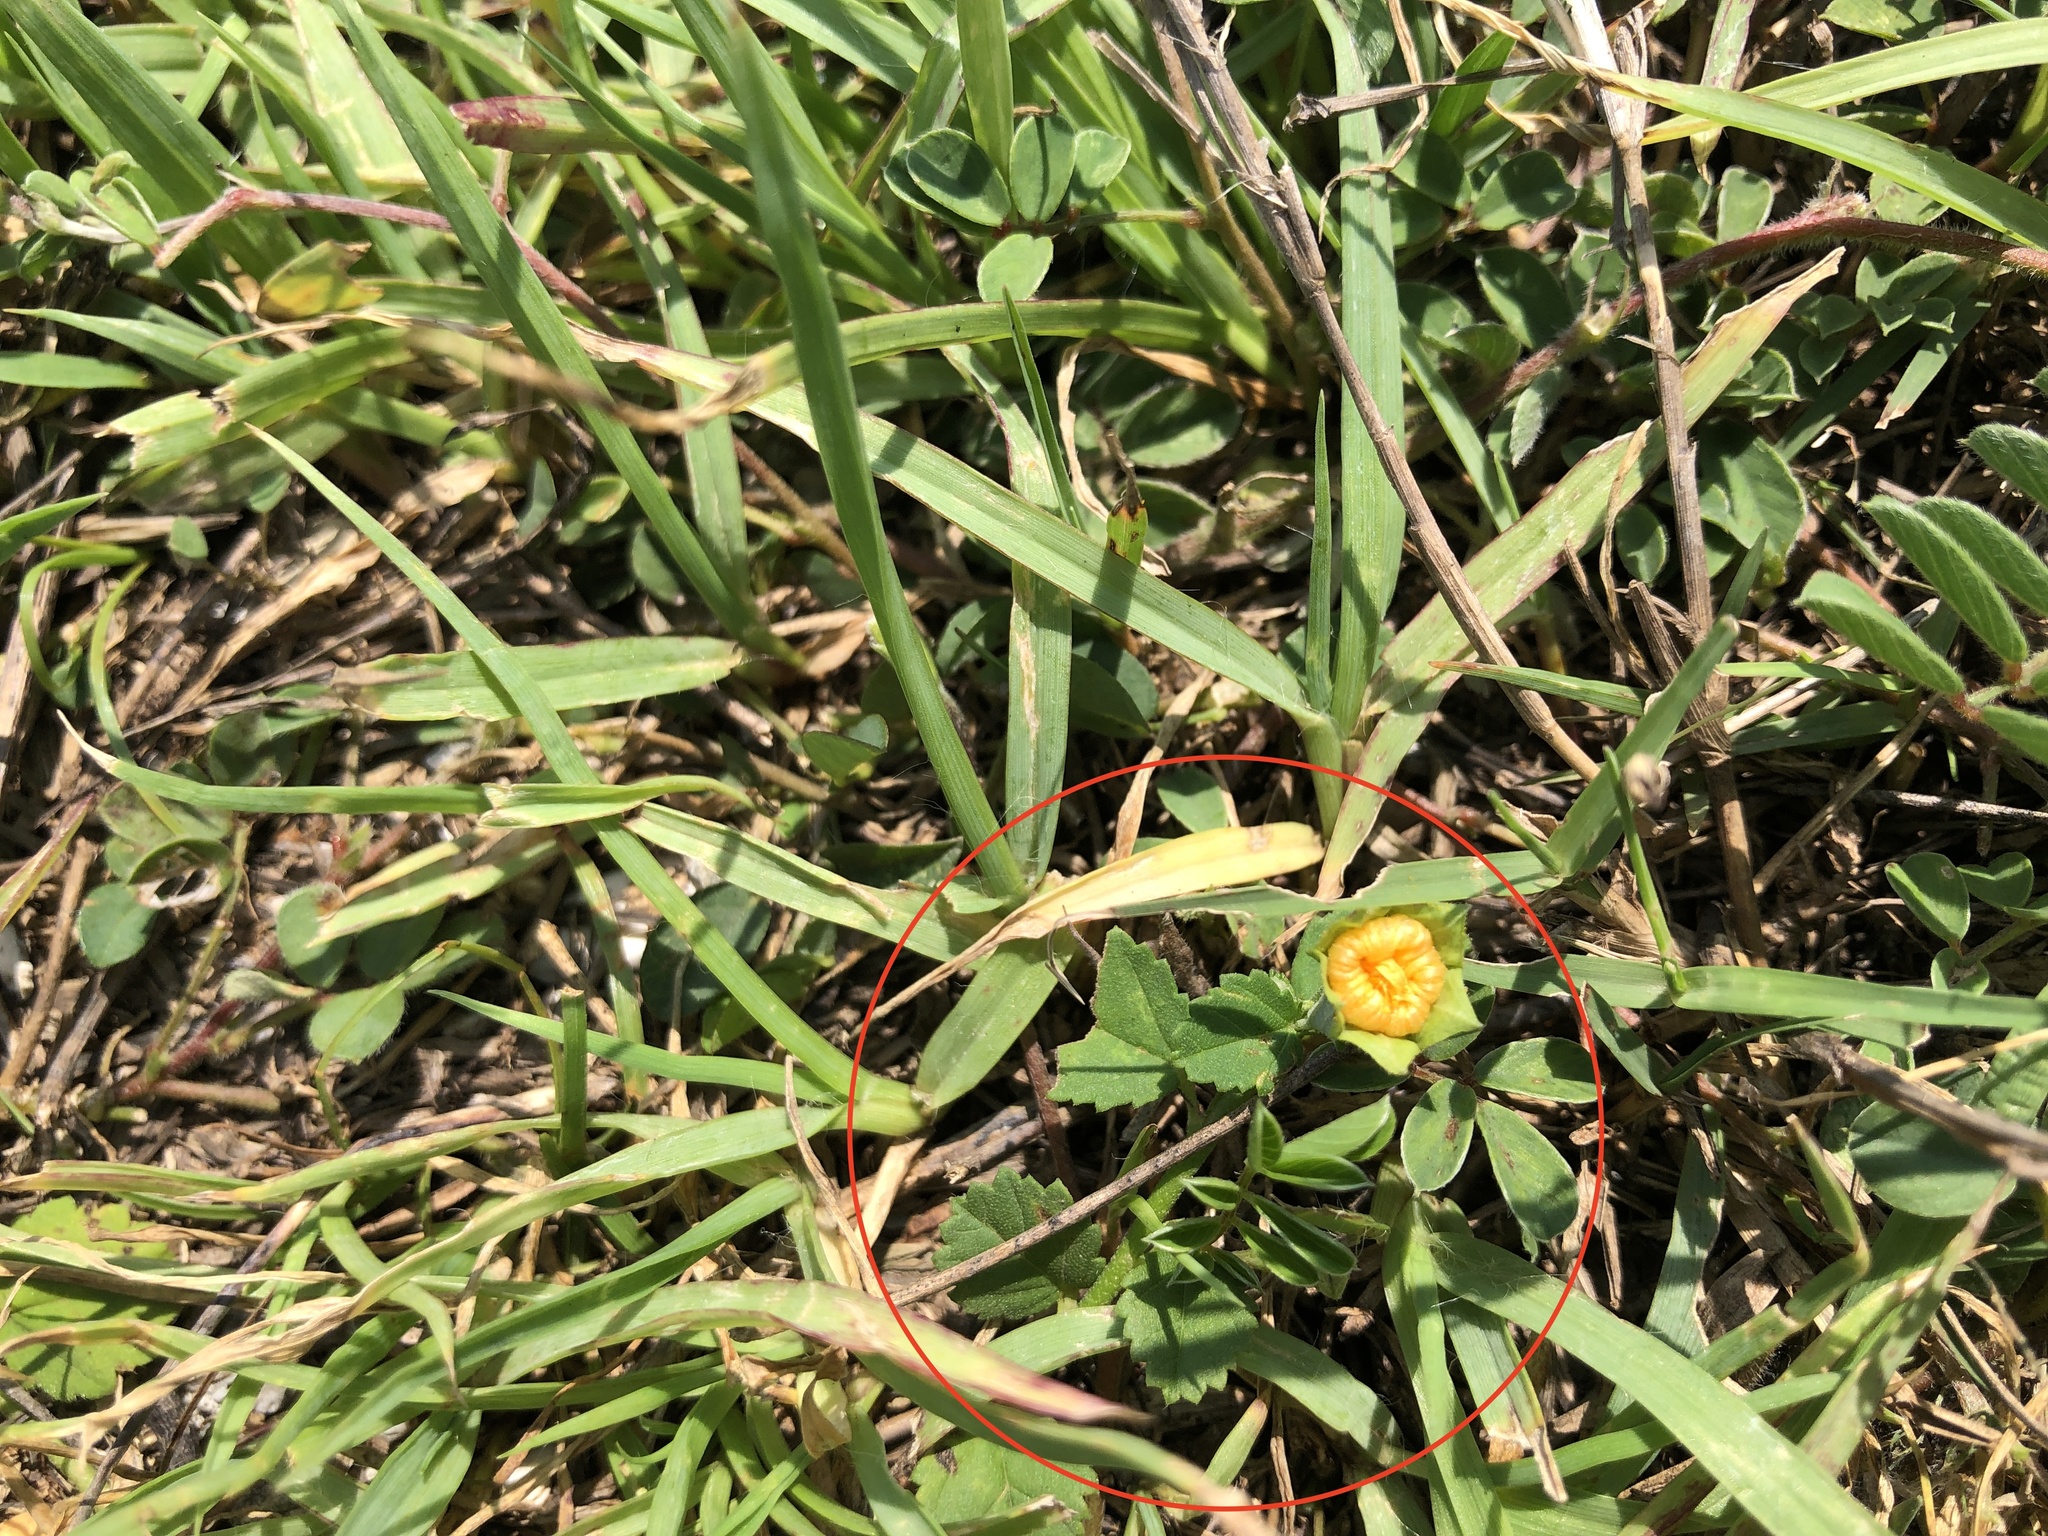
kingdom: Plantae
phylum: Tracheophyta
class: Magnoliopsida
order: Malvales
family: Malvaceae
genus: Sida
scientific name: Sida rhombifolia
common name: Queensland-hemp
